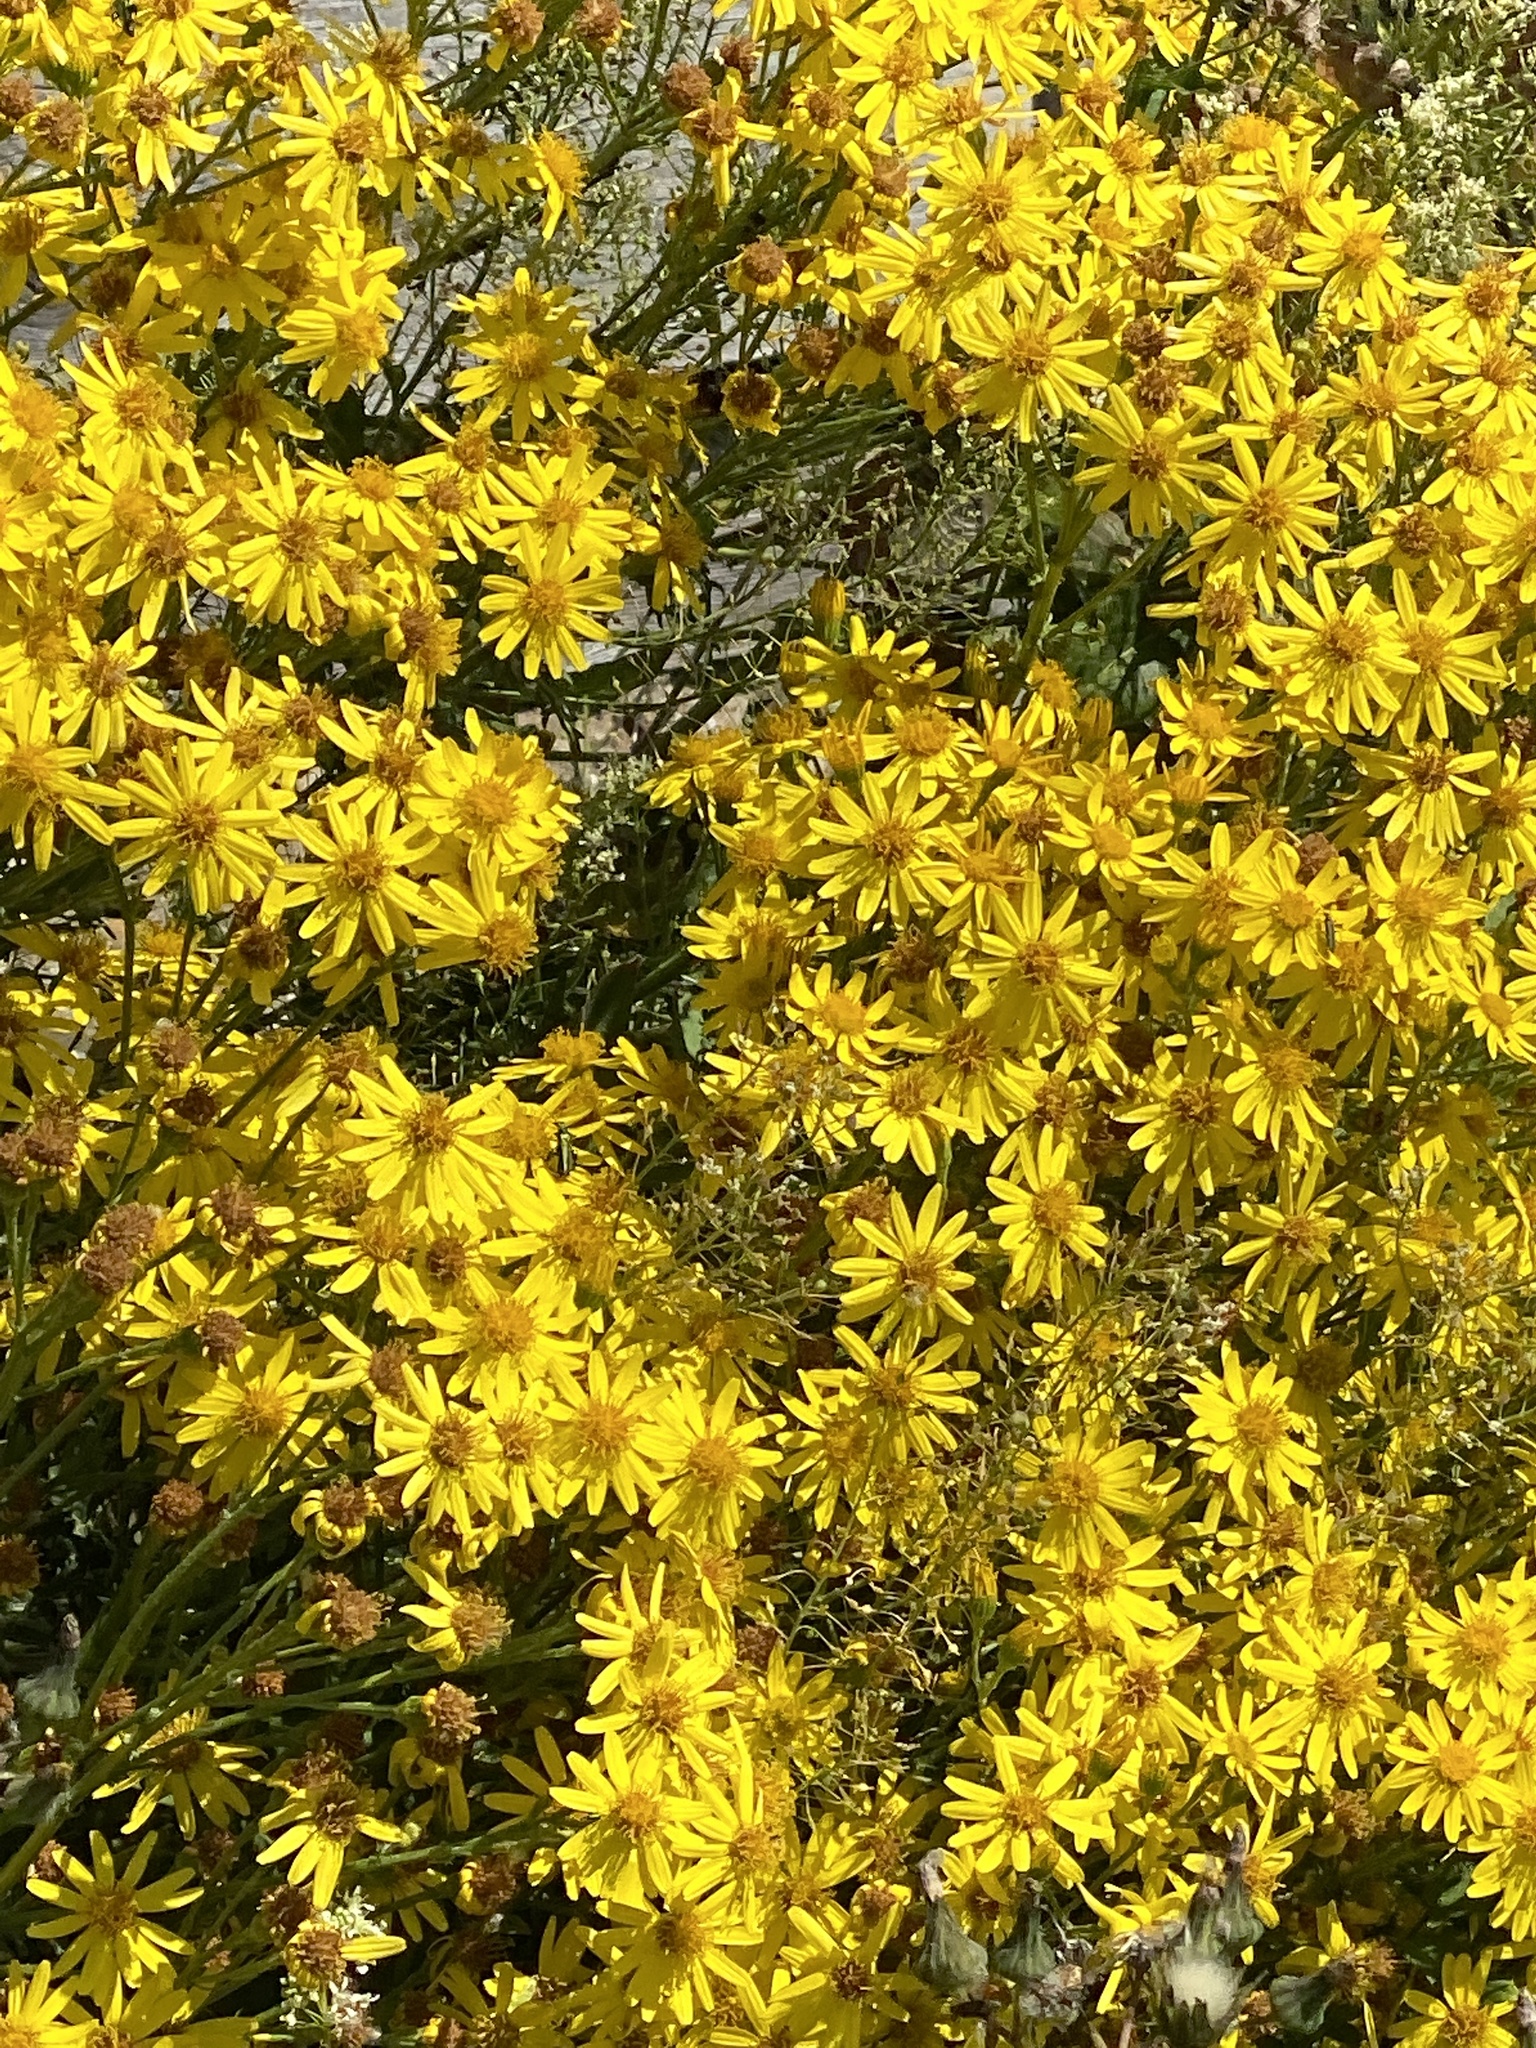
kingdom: Plantae
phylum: Tracheophyta
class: Magnoliopsida
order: Asterales
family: Asteraceae
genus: Jacobaea
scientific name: Jacobaea vulgaris
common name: Stinking willie
